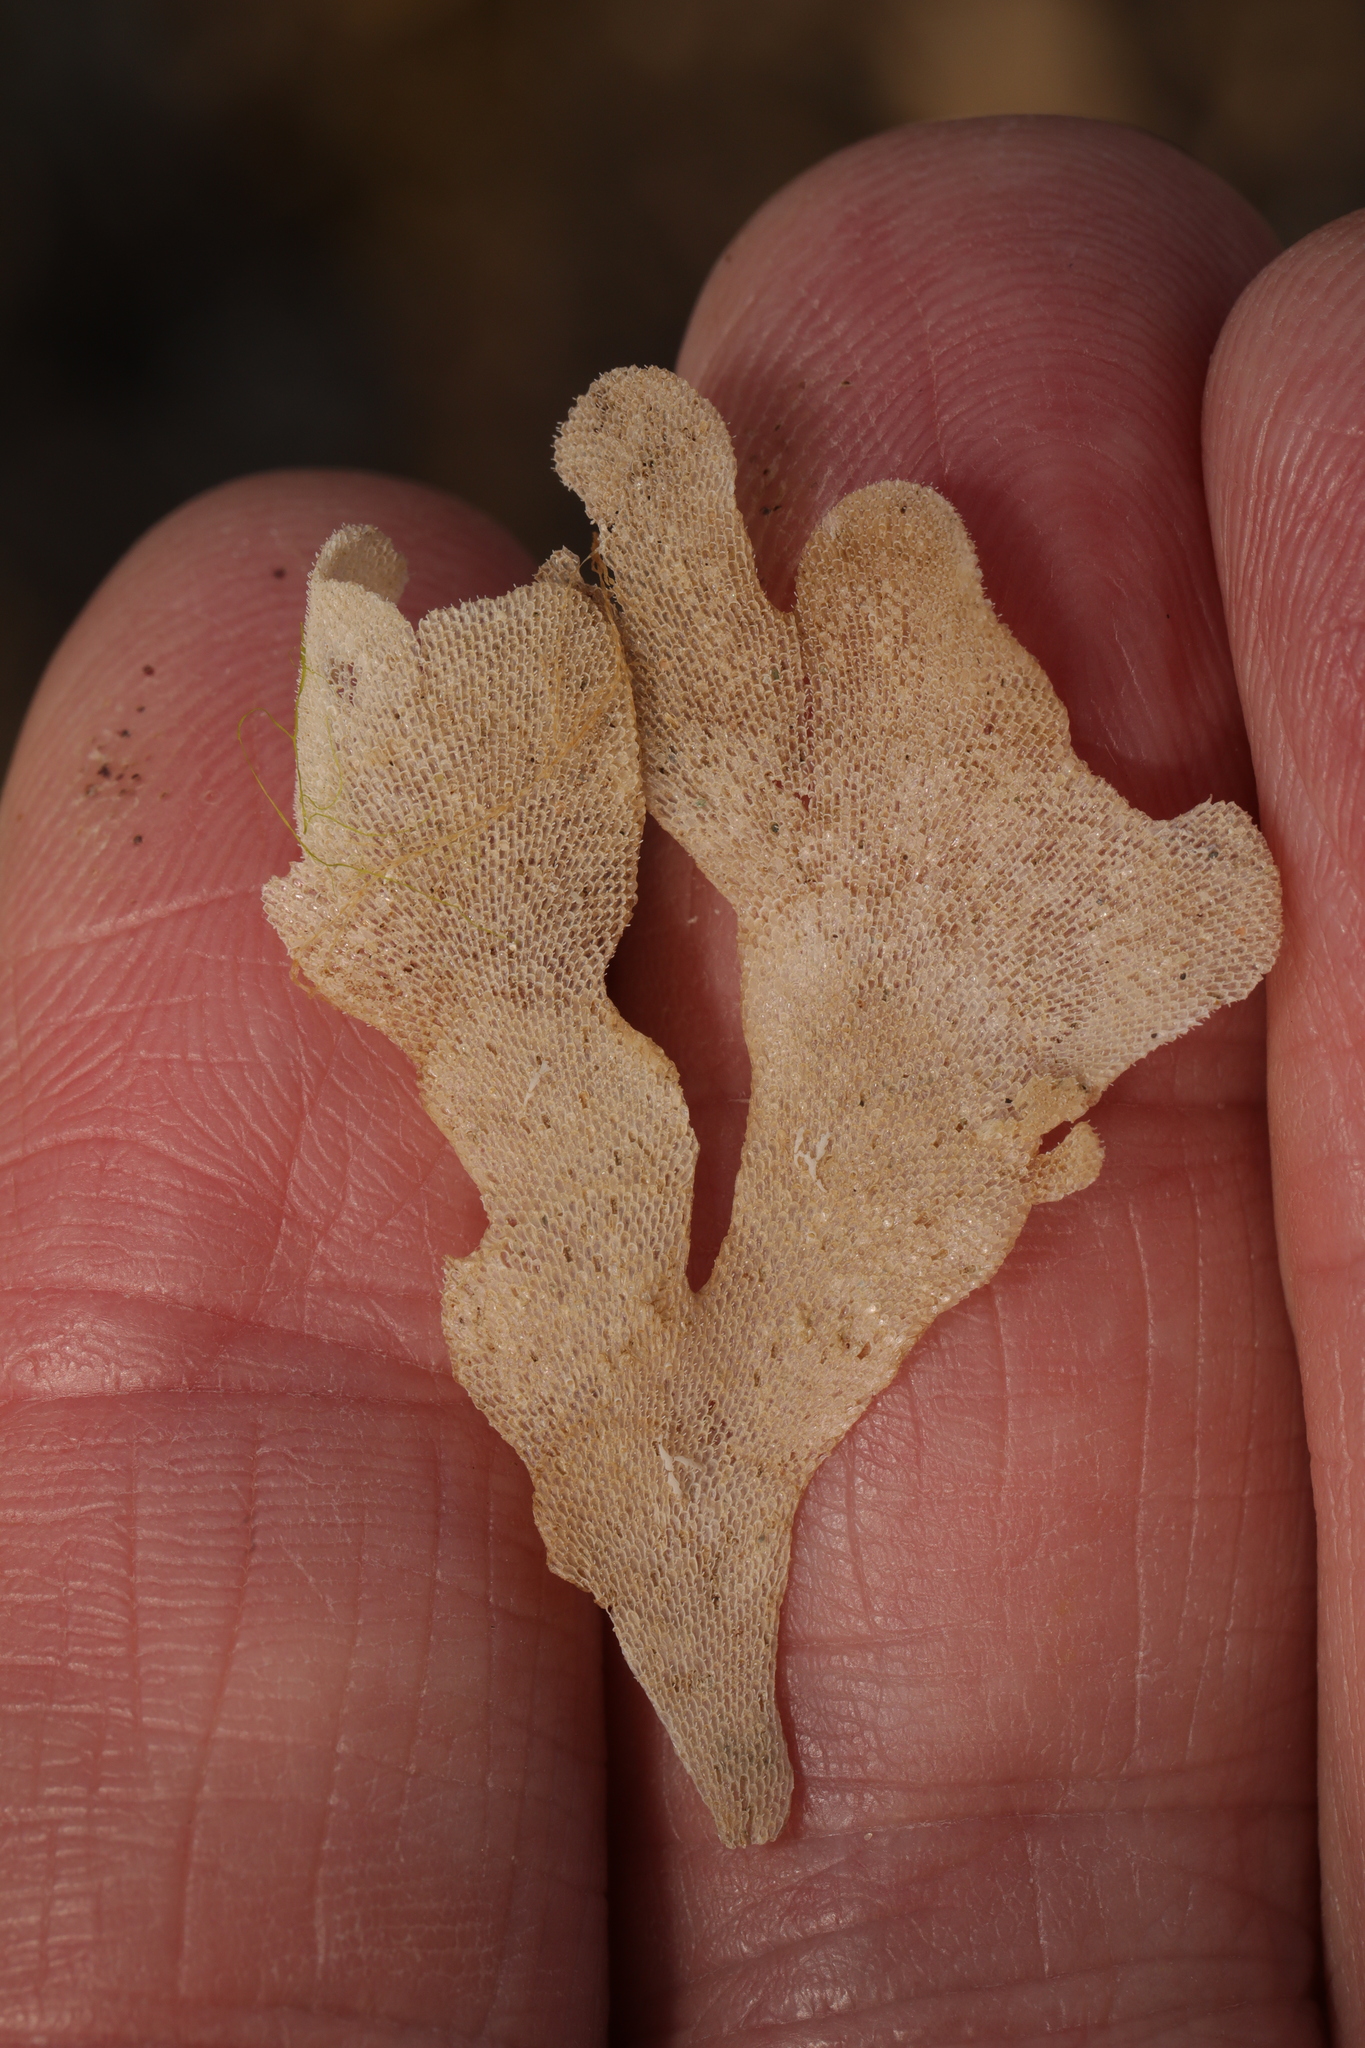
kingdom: Animalia
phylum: Bryozoa
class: Gymnolaemata
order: Cheilostomatida
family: Flustridae
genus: Flustra
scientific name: Flustra foliacea
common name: Hornwrack
